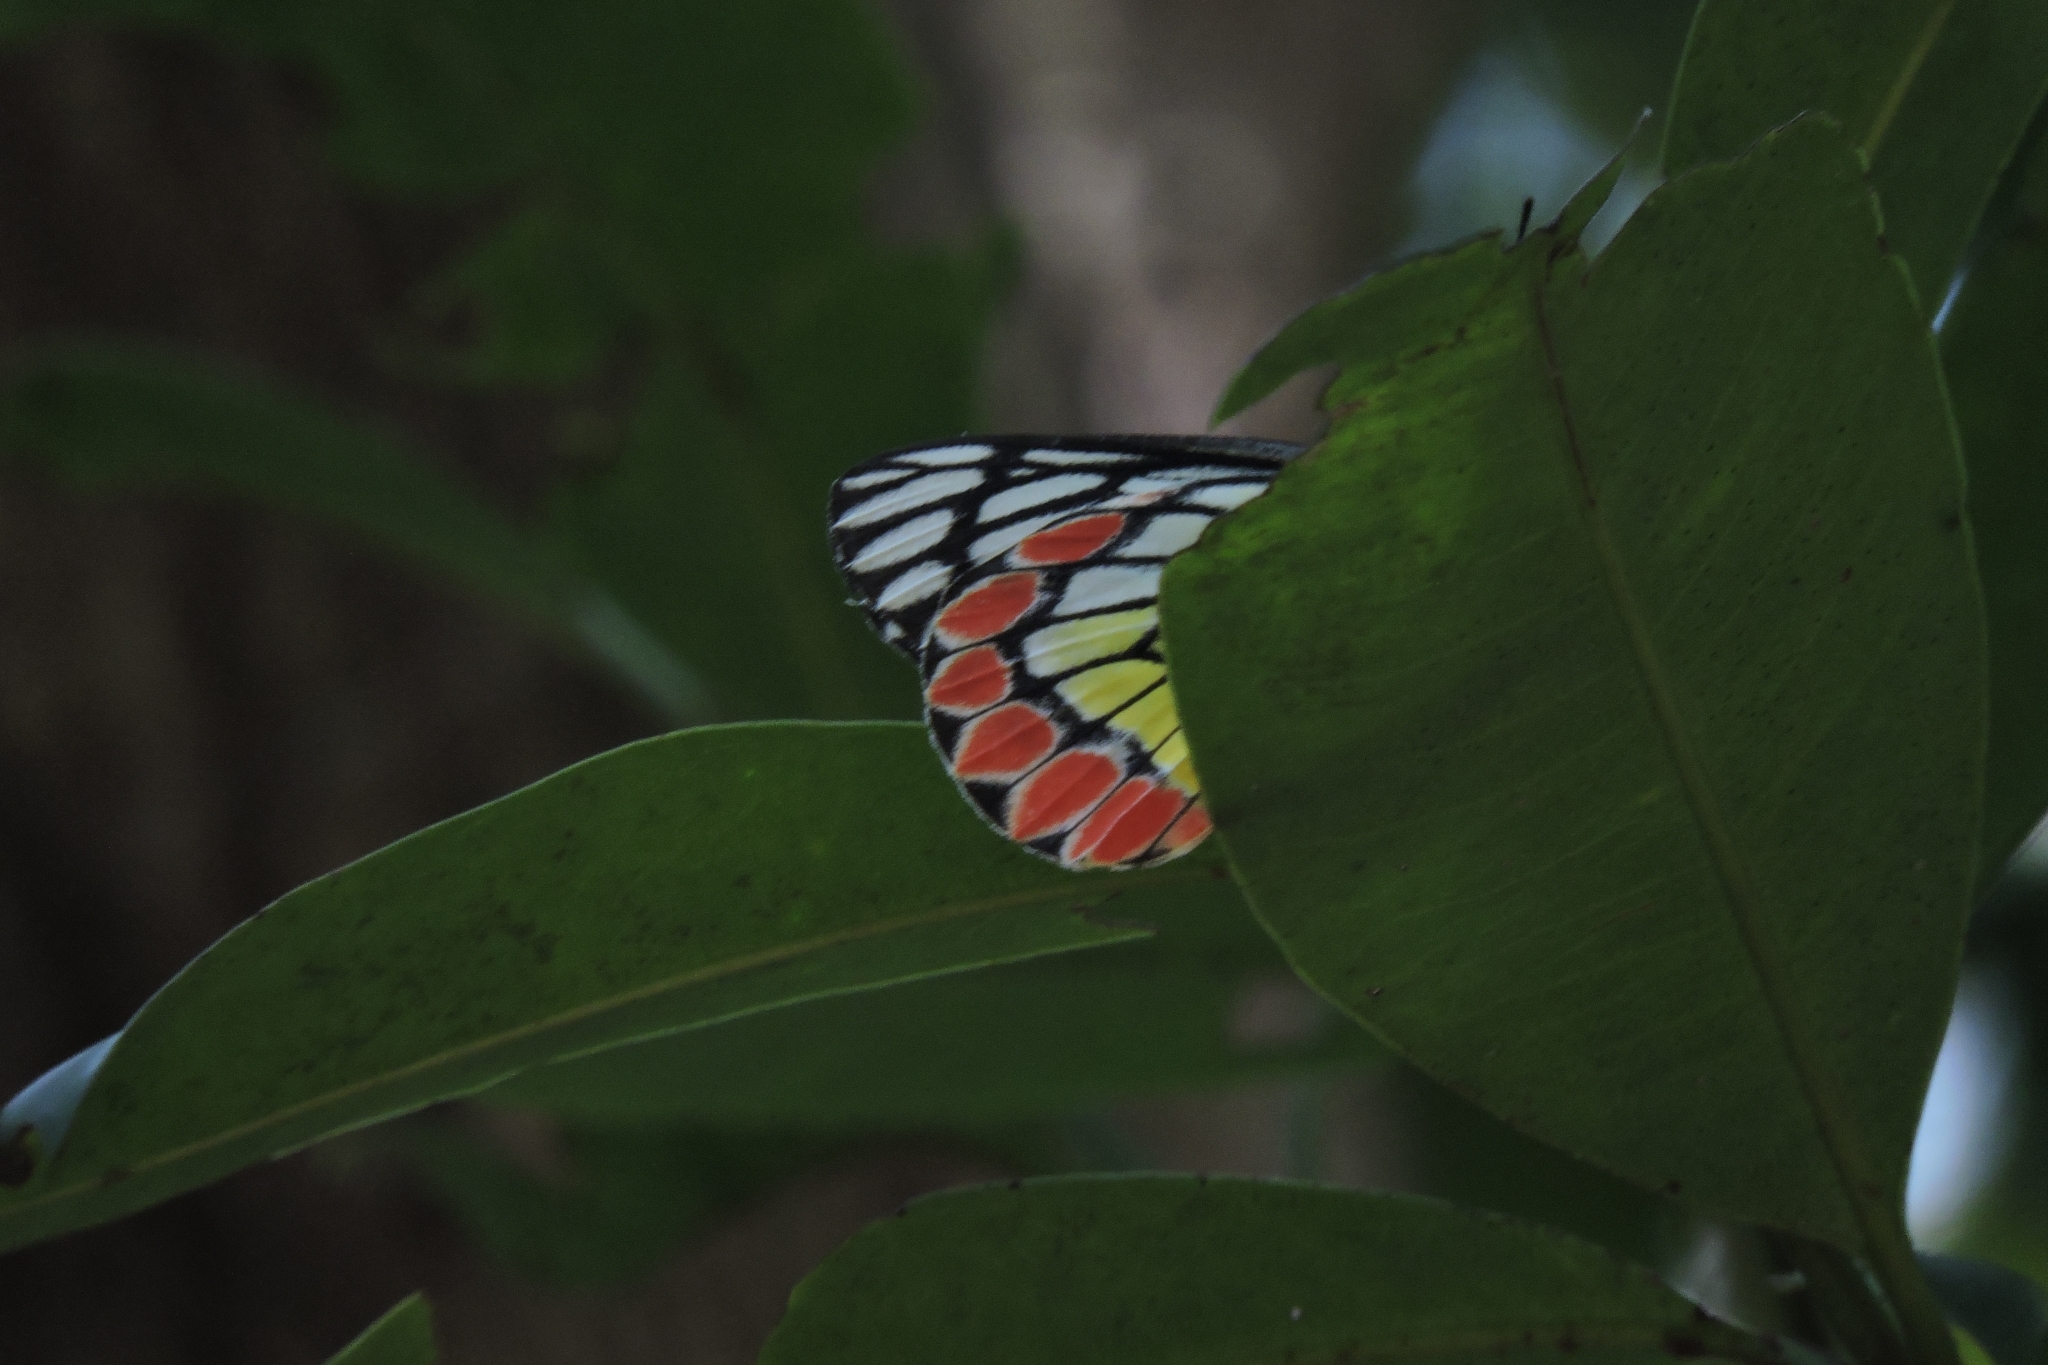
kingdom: Animalia
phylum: Arthropoda
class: Insecta
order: Lepidoptera
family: Pieridae
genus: Delias
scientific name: Delias eucharis
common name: Common jezebel
